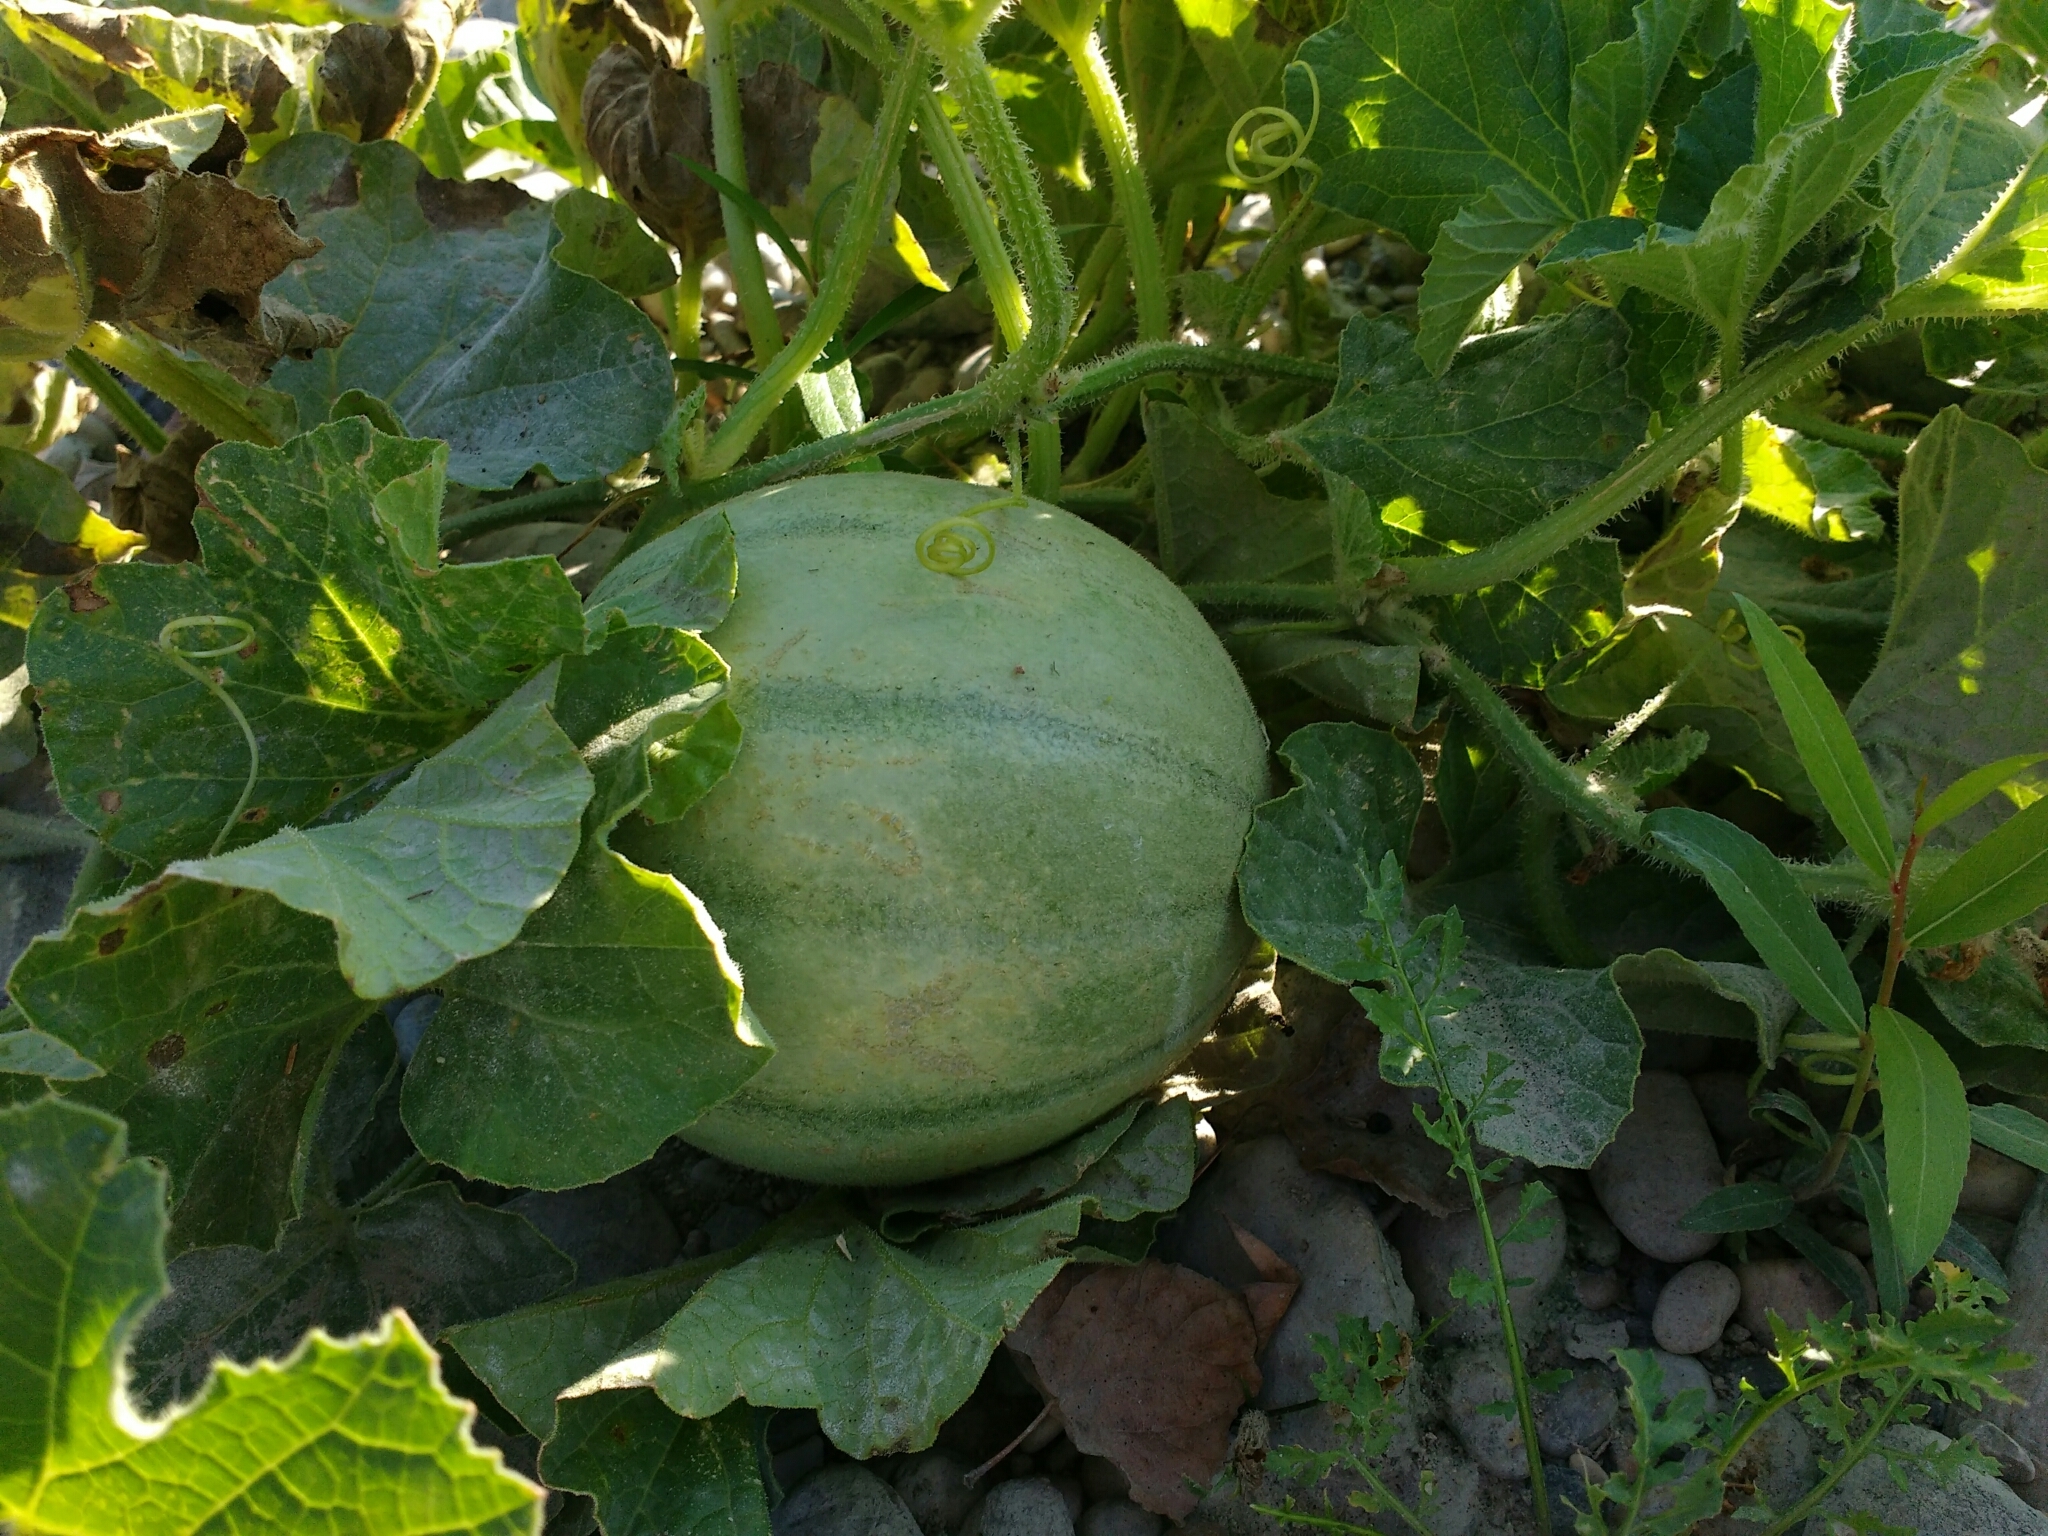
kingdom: Plantae
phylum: Tracheophyta
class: Magnoliopsida
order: Cucurbitales
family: Cucurbitaceae
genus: Cucumis
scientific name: Cucumis melo
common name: Melon
